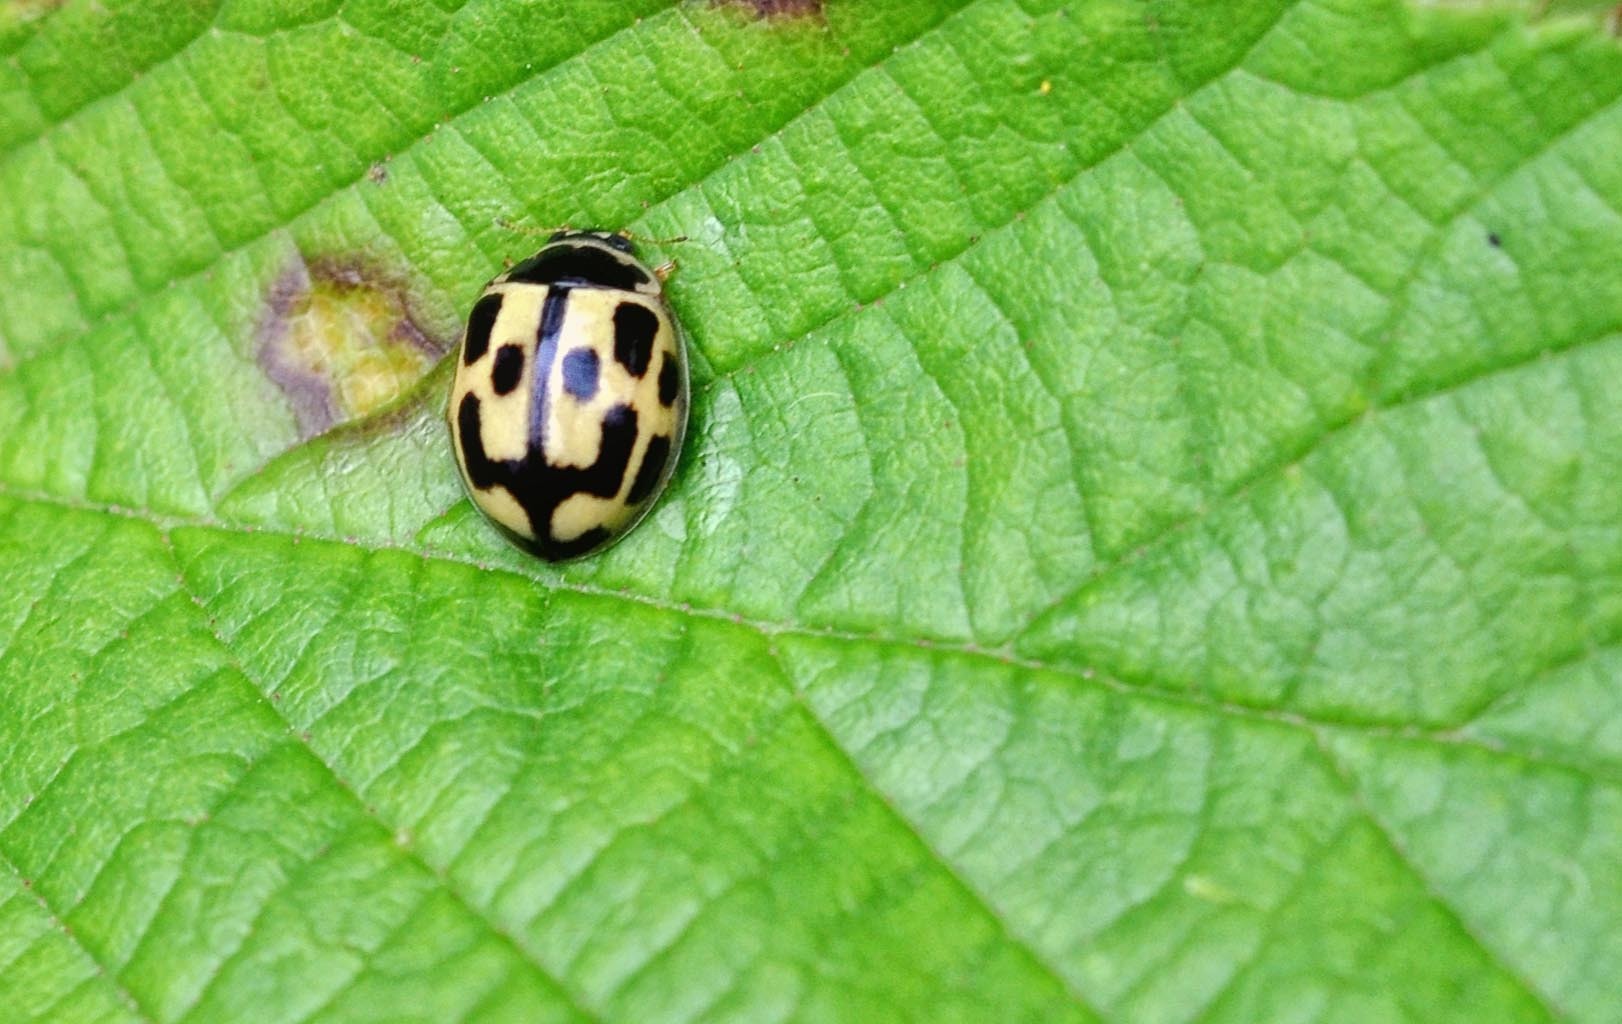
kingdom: Animalia
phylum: Arthropoda
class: Insecta
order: Coleoptera
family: Coccinellidae
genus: Propylaea
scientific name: Propylaea quatuordecimpunctata
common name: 14-spotted ladybird beetle
